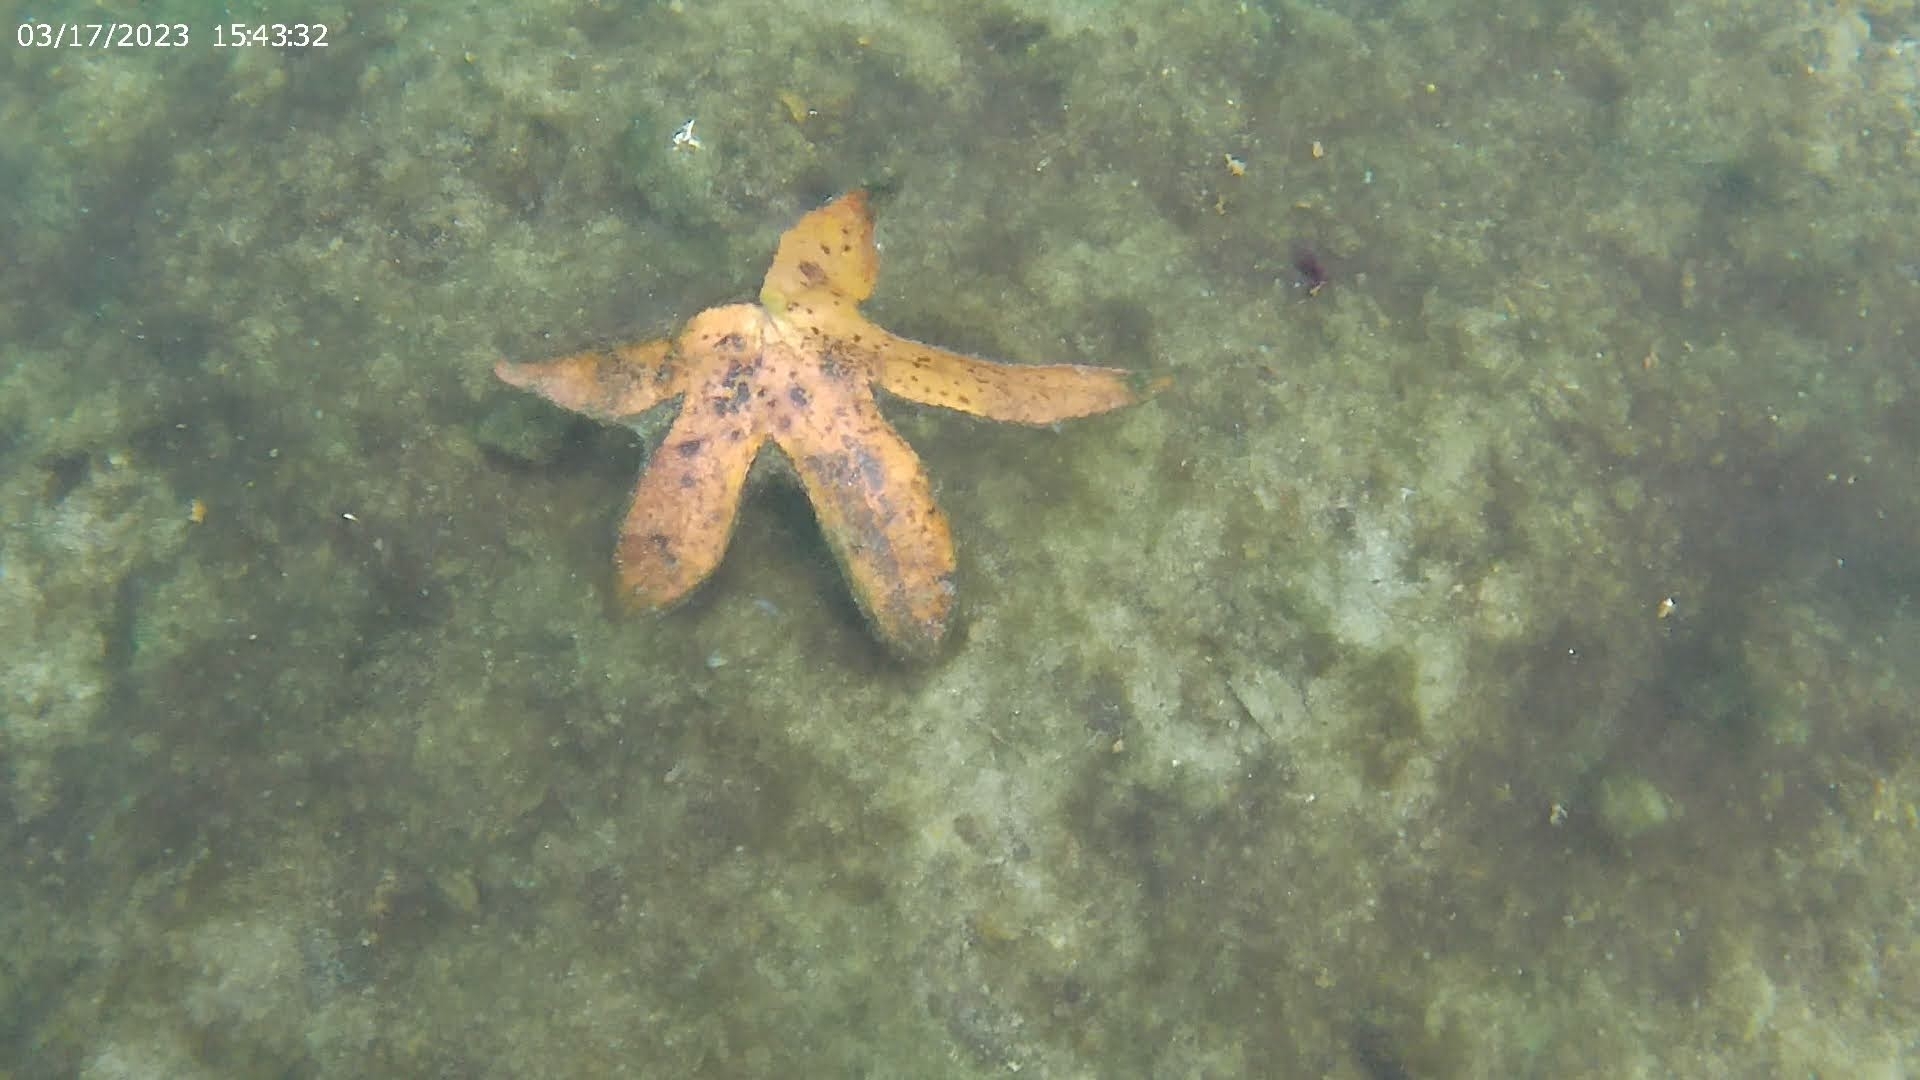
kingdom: Plantae
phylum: Tracheophyta
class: Magnoliopsida
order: Saxifragales
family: Altingiaceae
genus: Liquidambar
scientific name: Liquidambar styraciflua
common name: Sweet gum
